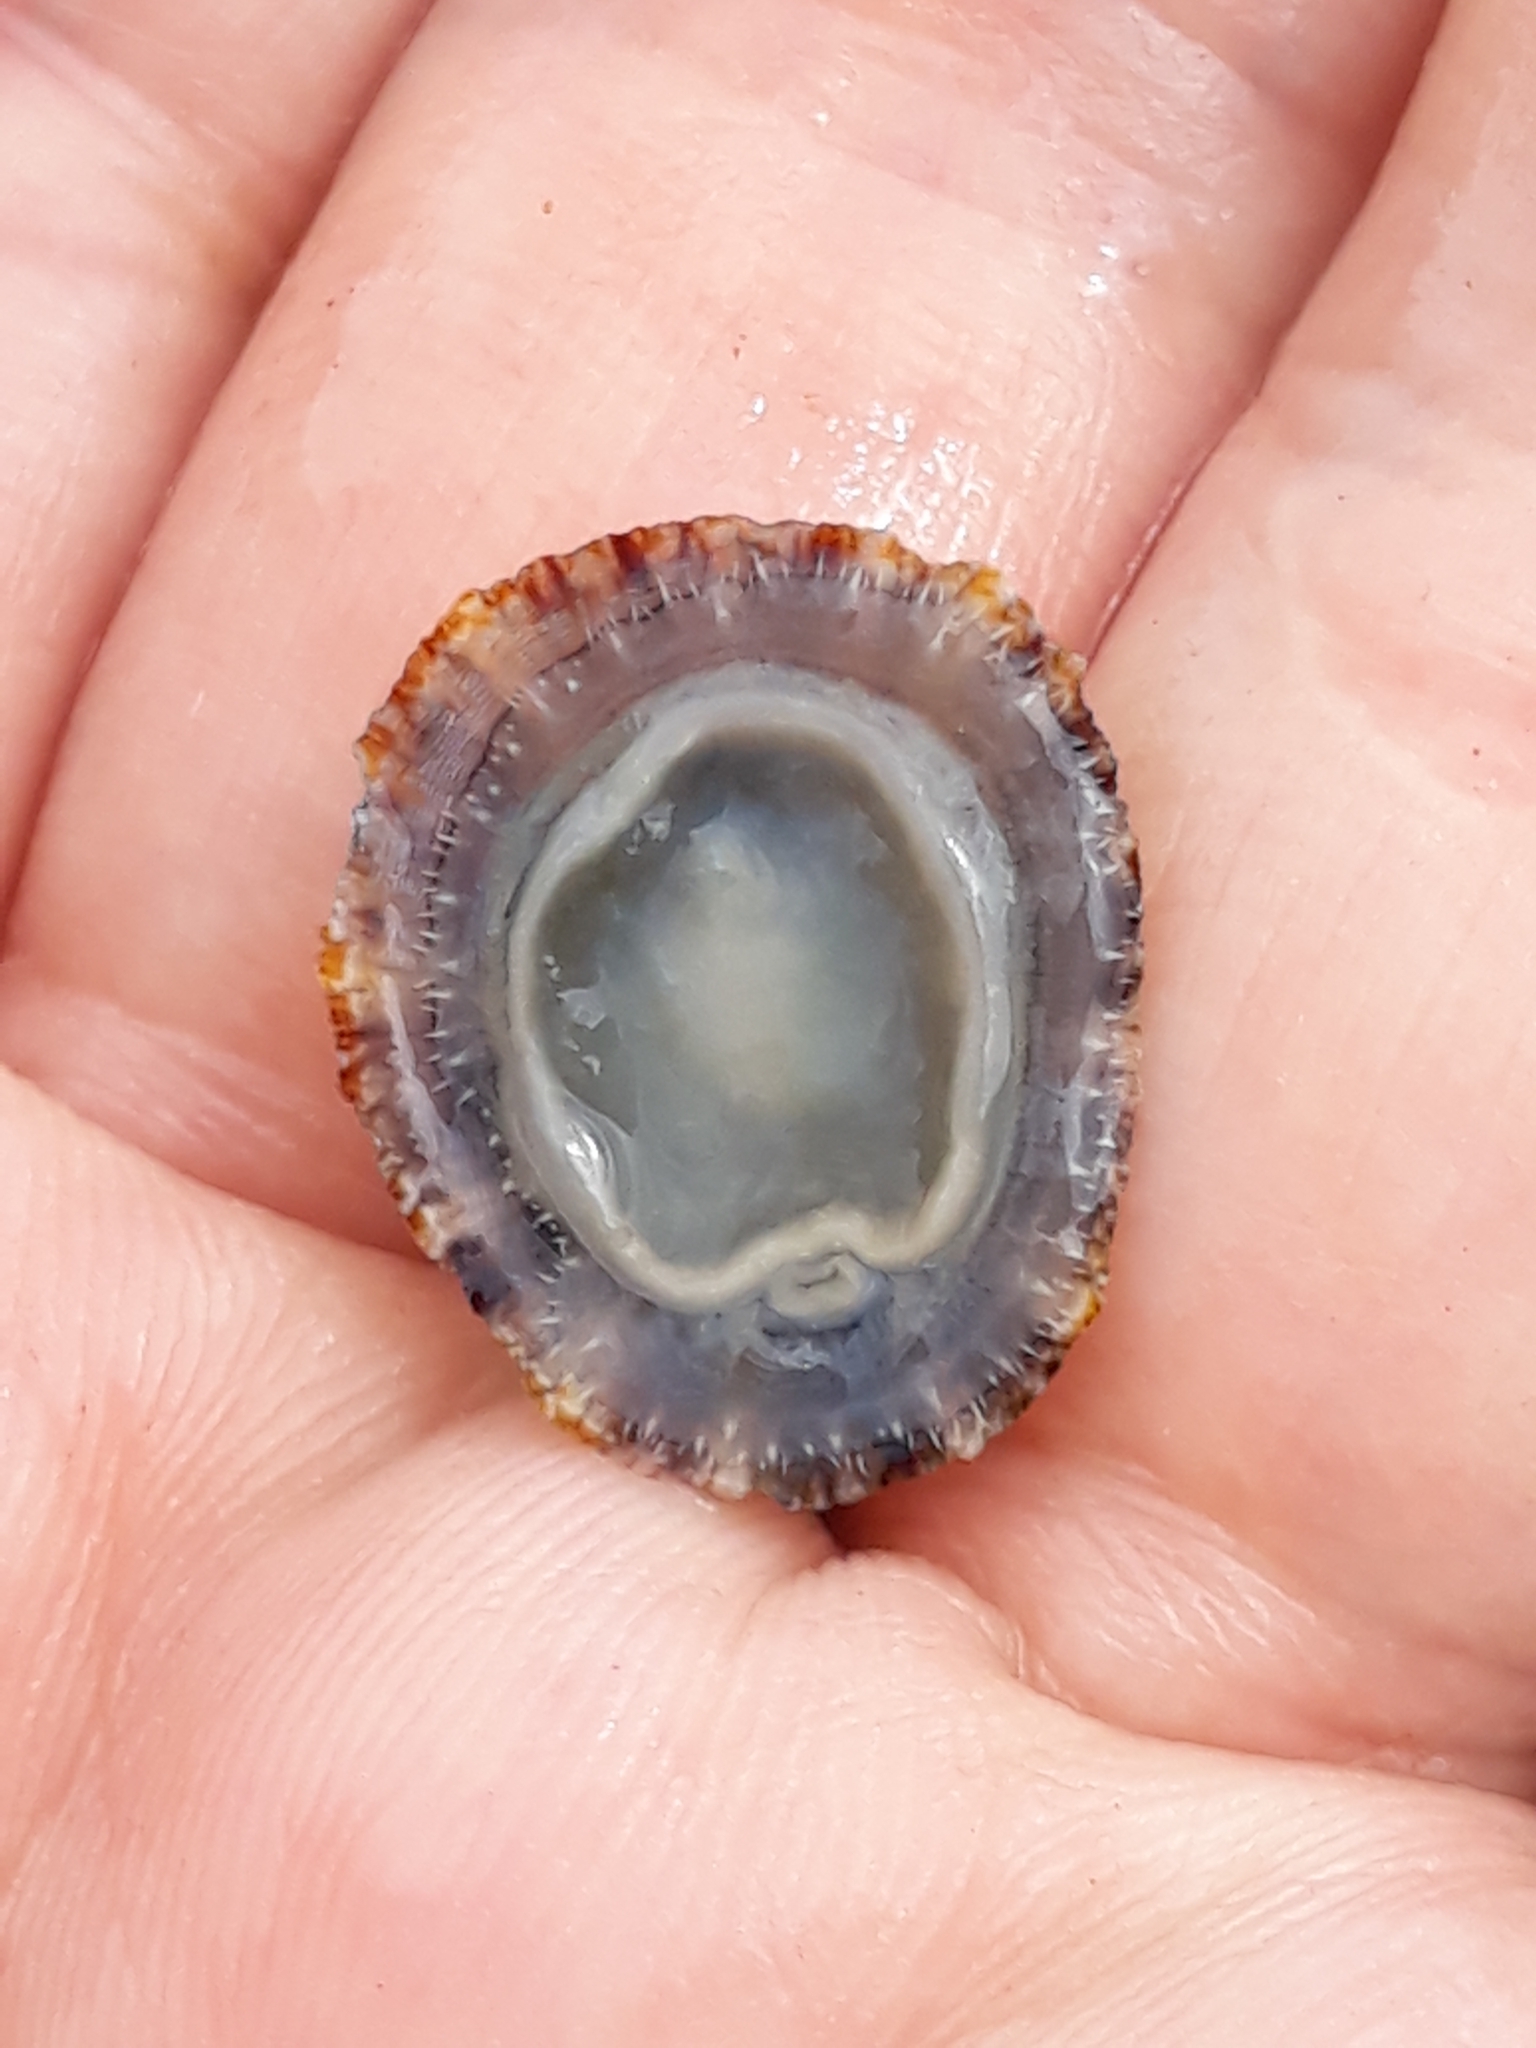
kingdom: Animalia
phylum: Mollusca
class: Gastropoda
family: Patellidae
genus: Patella
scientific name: Patella rustica
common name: Lusitanian limpet
